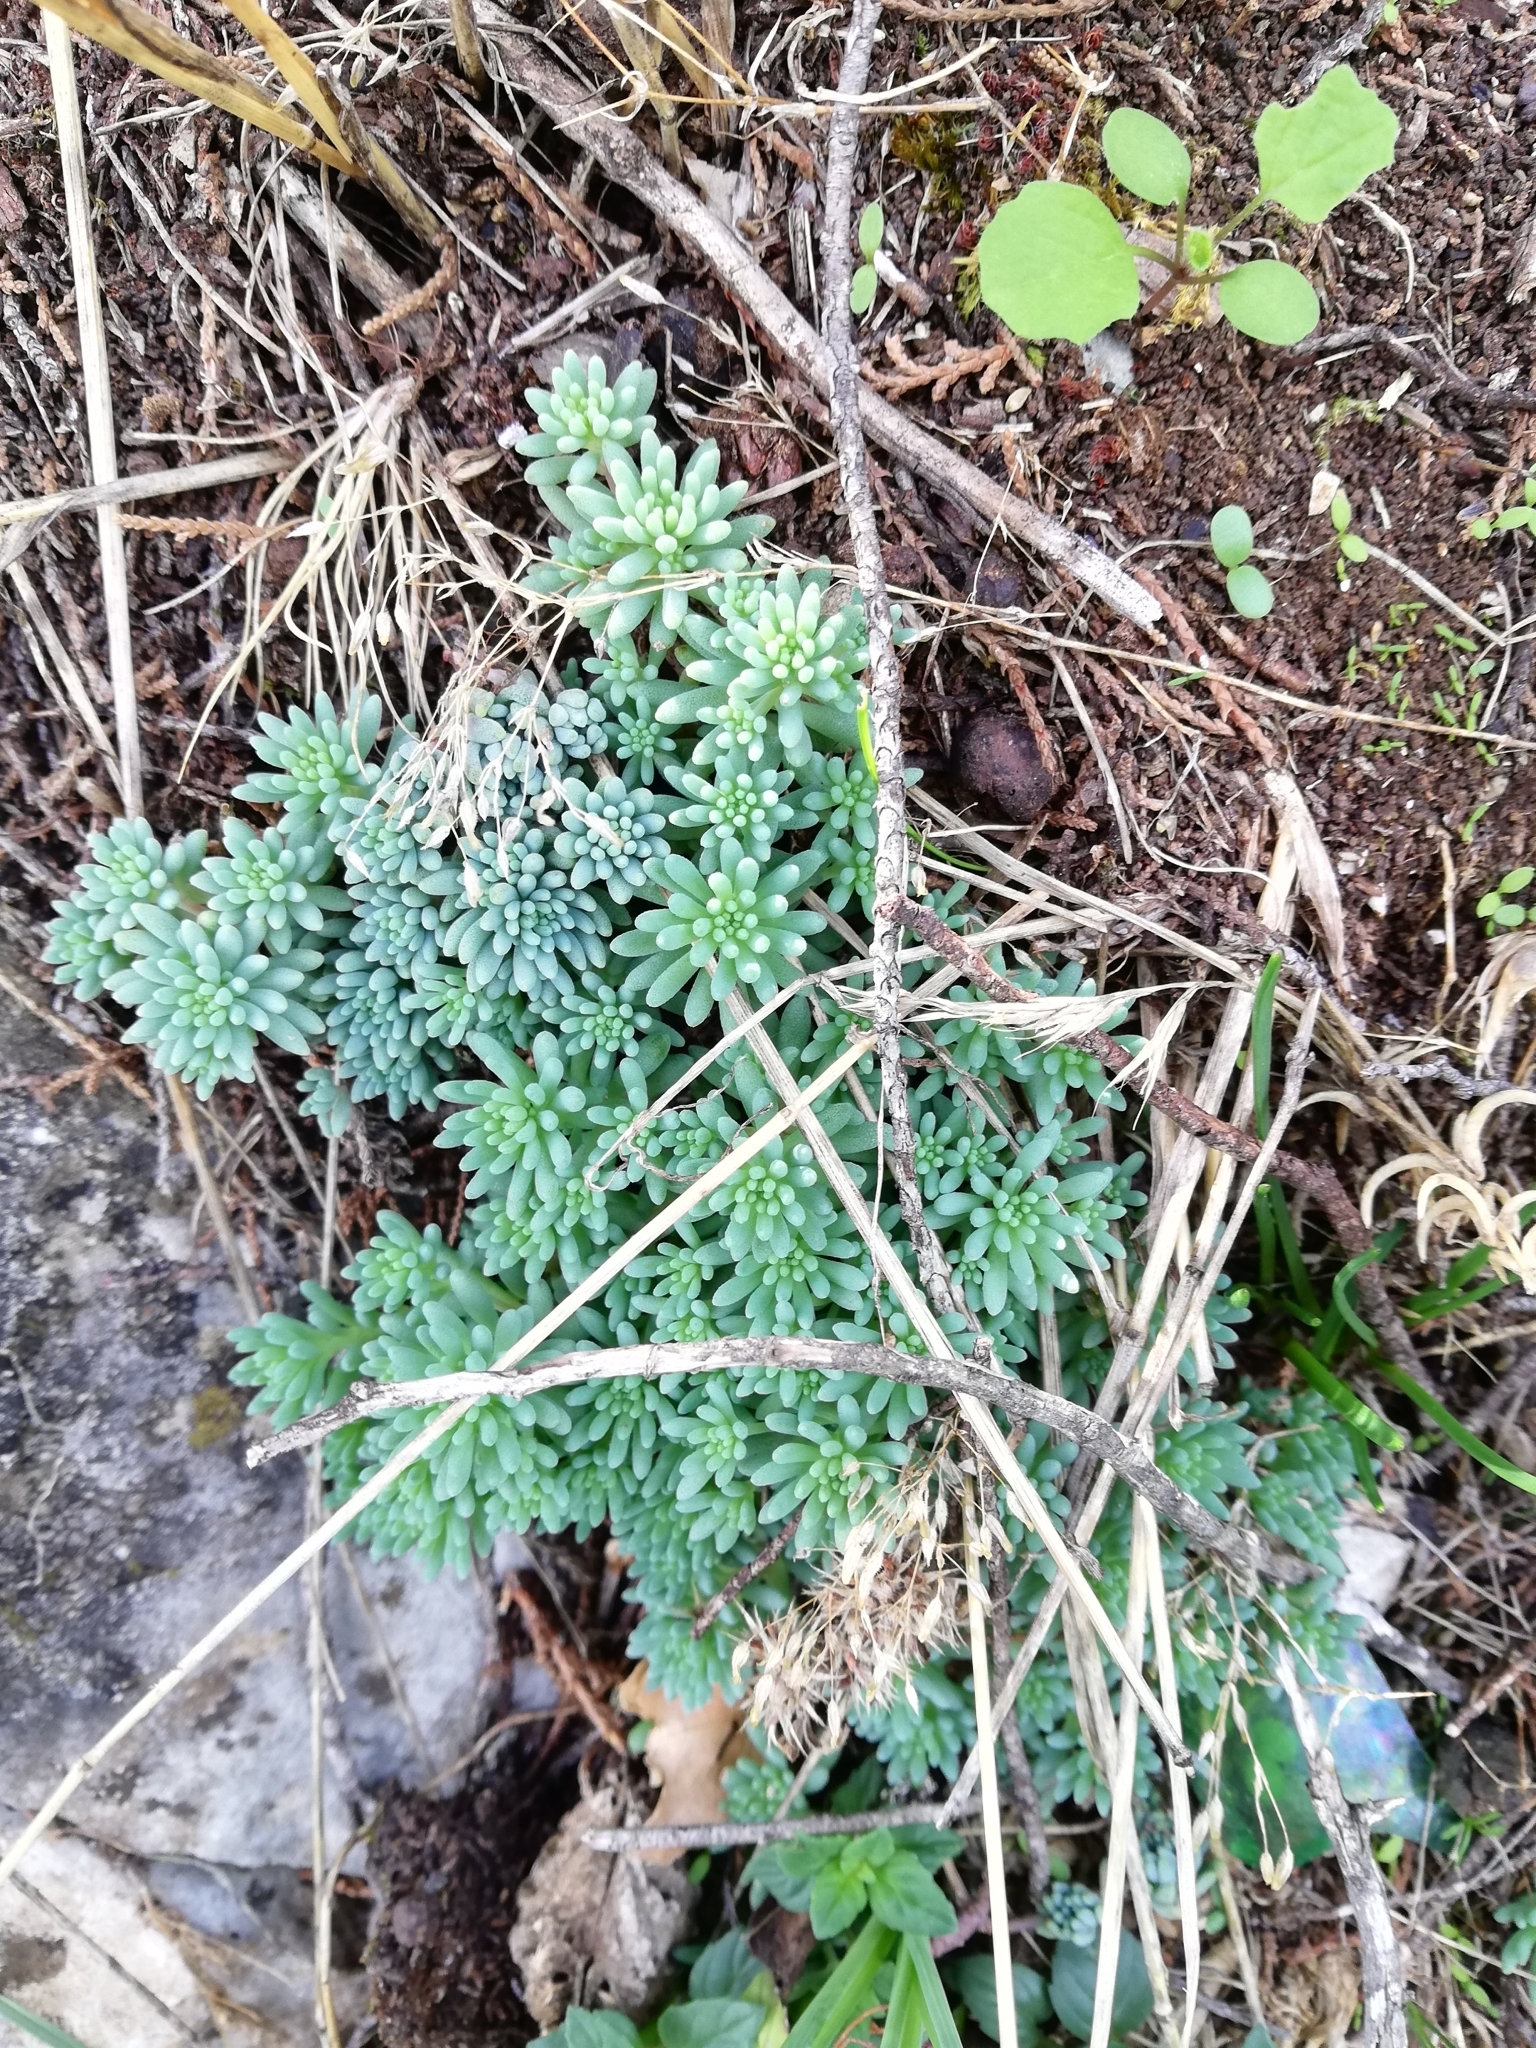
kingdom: Plantae
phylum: Tracheophyta
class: Magnoliopsida
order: Saxifragales
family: Crassulaceae
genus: Sedum
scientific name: Sedum hispanicum
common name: Spanish stonecrop
